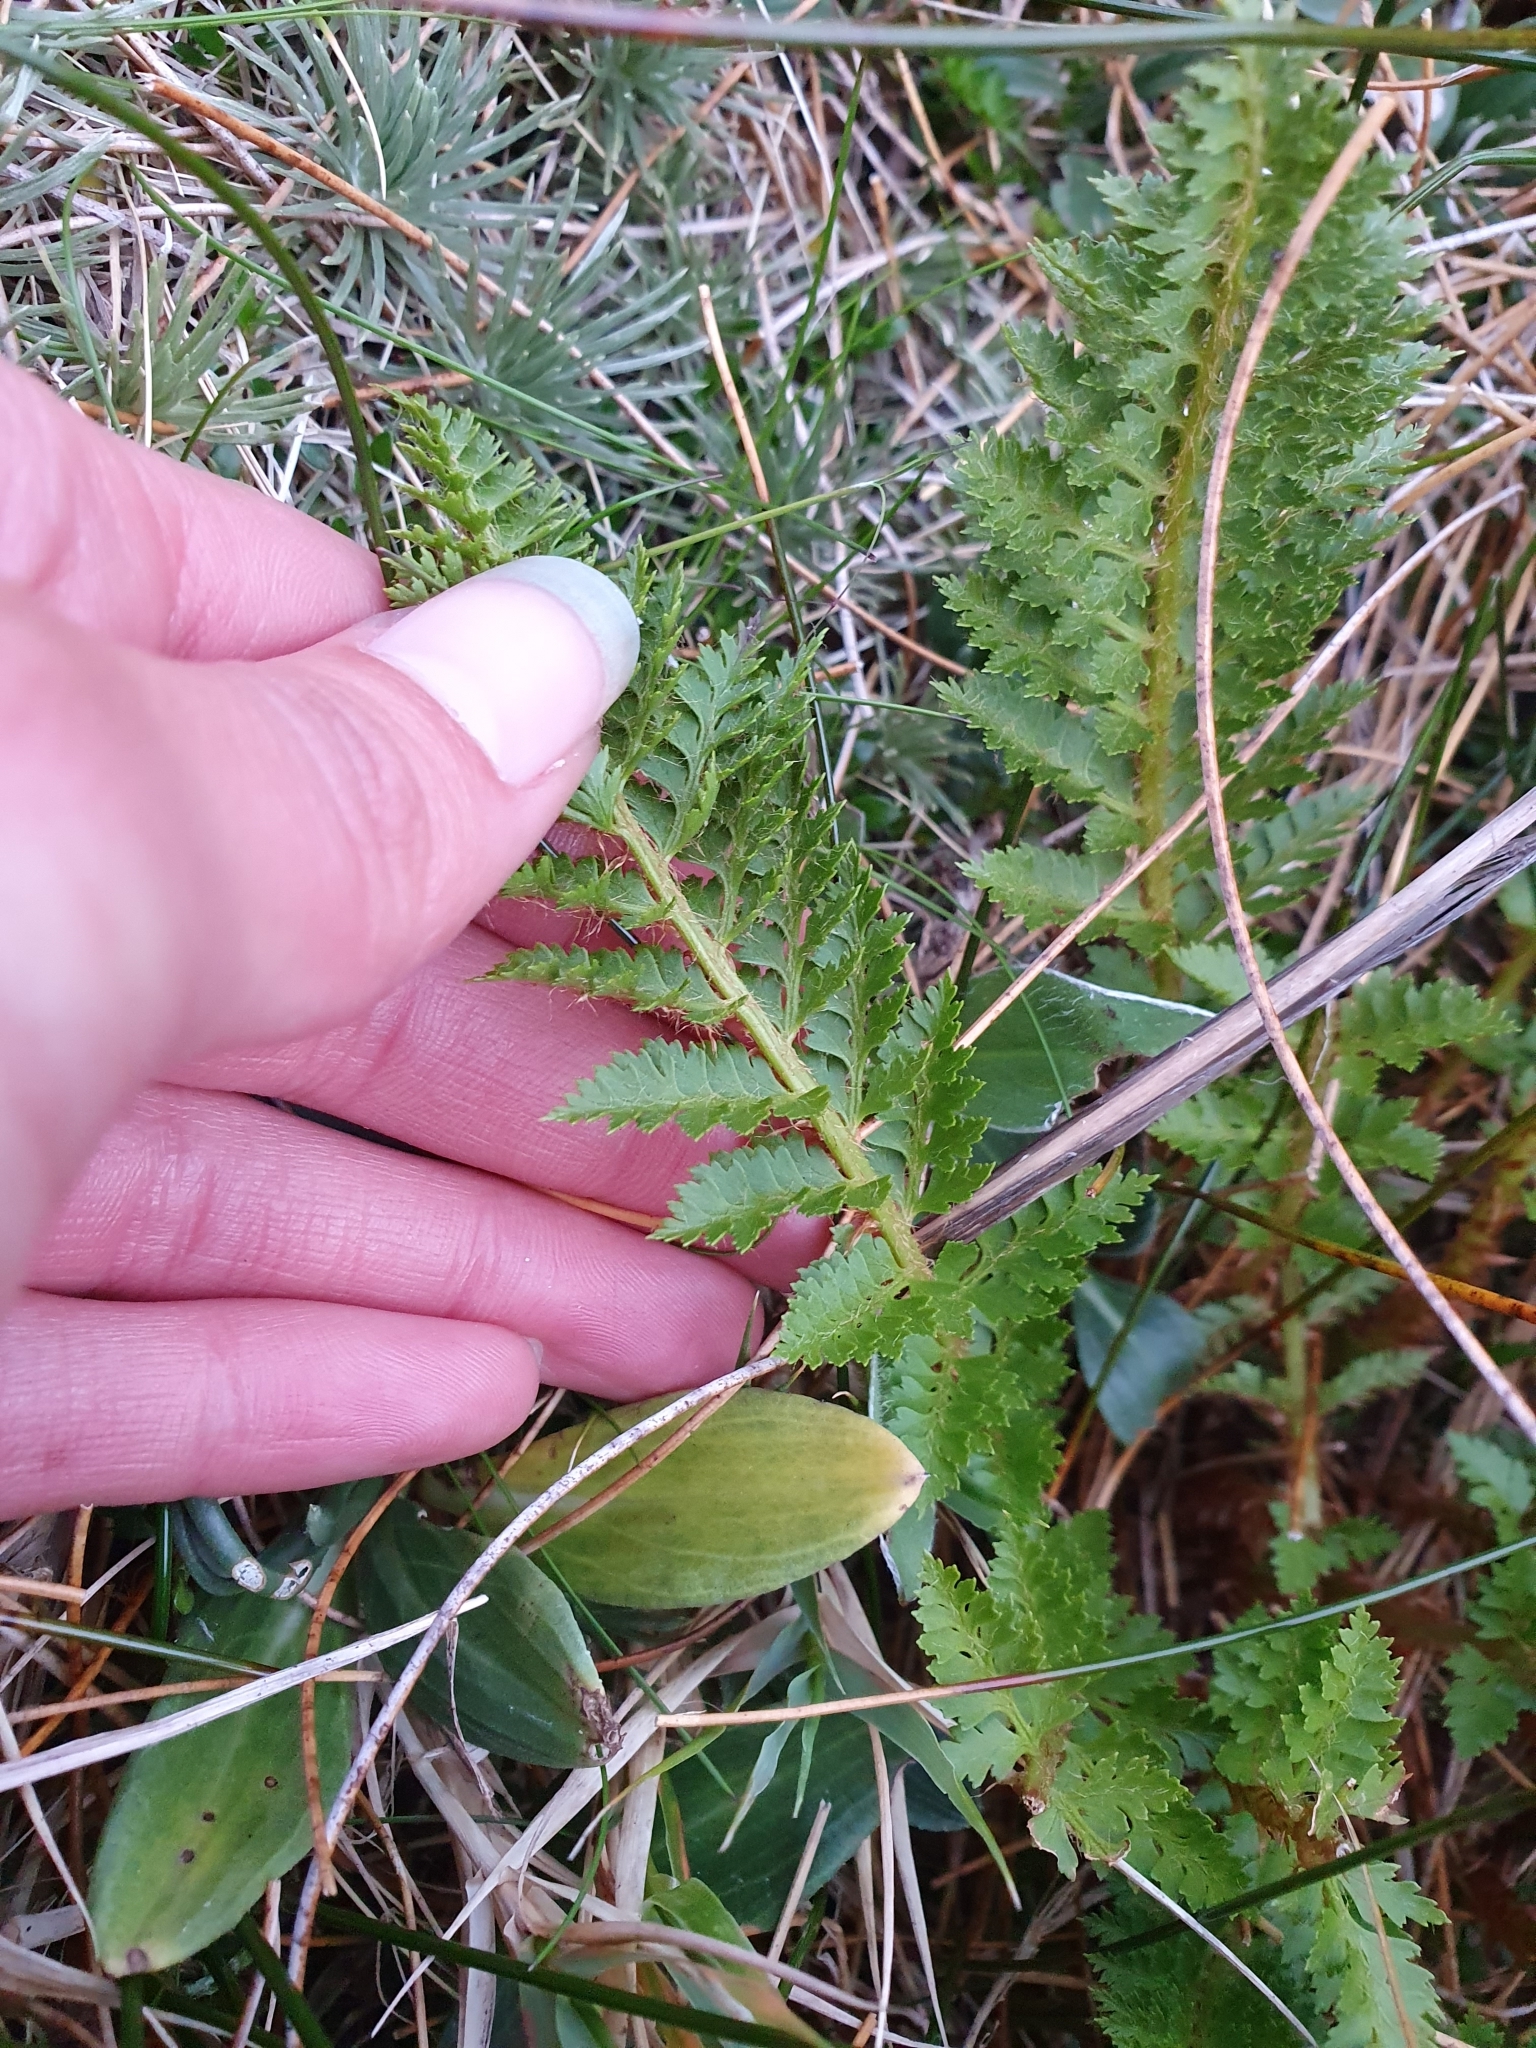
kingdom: Plantae
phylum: Tracheophyta
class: Polypodiopsida
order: Polypodiales
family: Dryopteridaceae
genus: Polystichum
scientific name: Polystichum cystostegia
